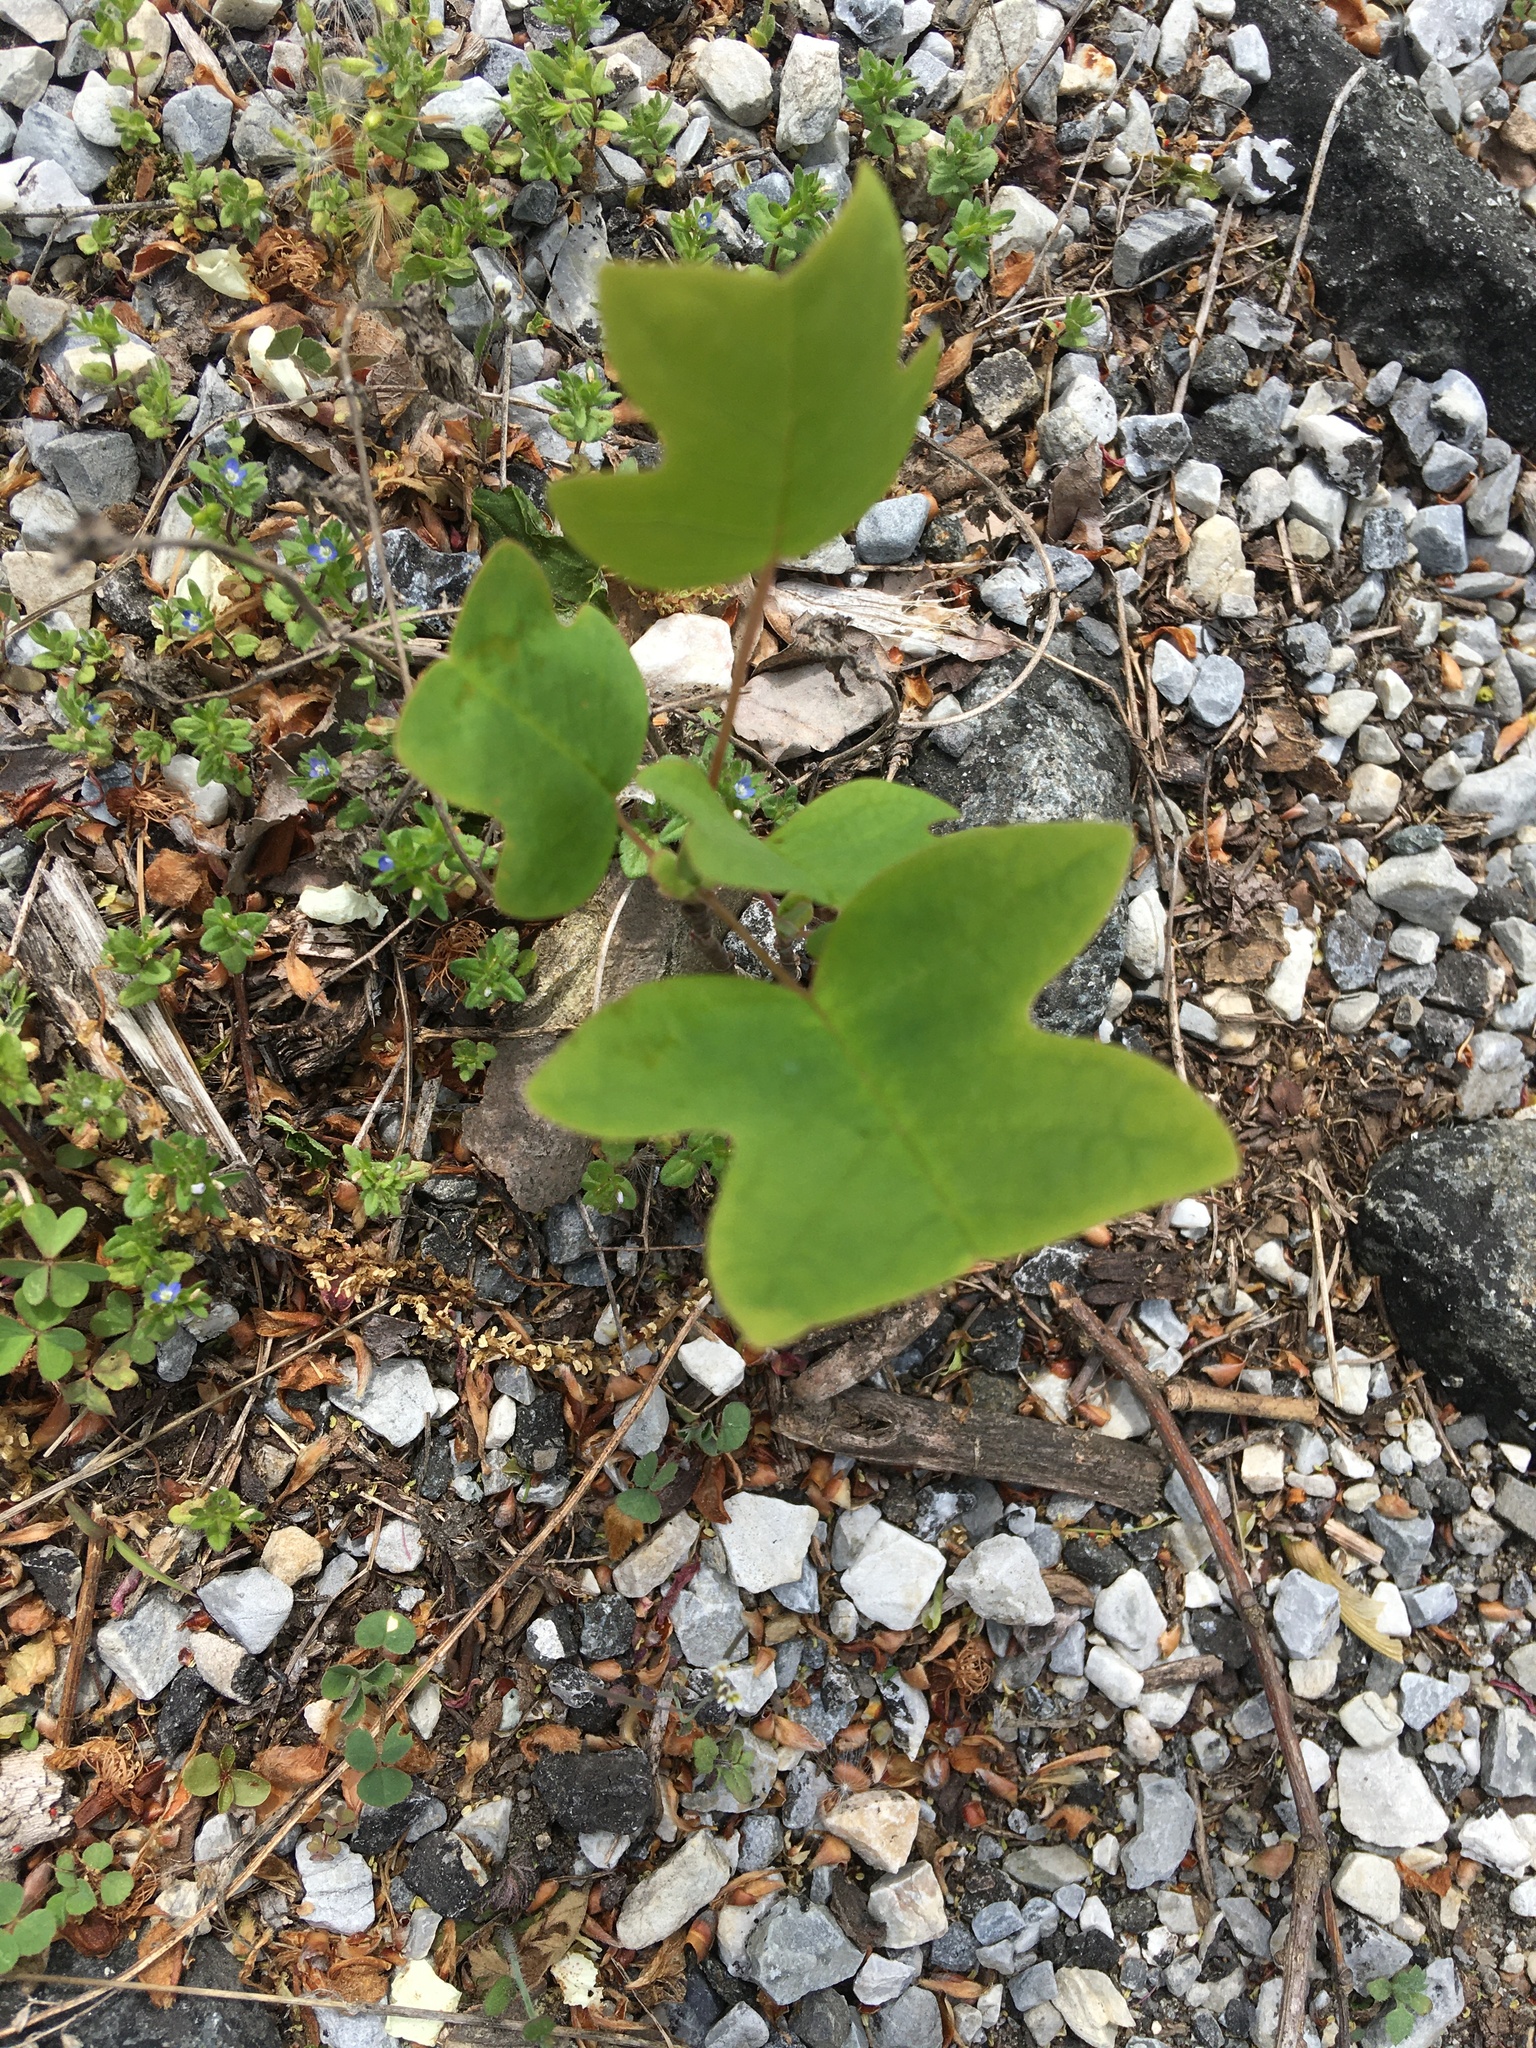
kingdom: Plantae
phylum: Tracheophyta
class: Magnoliopsida
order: Magnoliales
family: Magnoliaceae
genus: Liriodendron
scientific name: Liriodendron tulipifera
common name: Tulip tree
